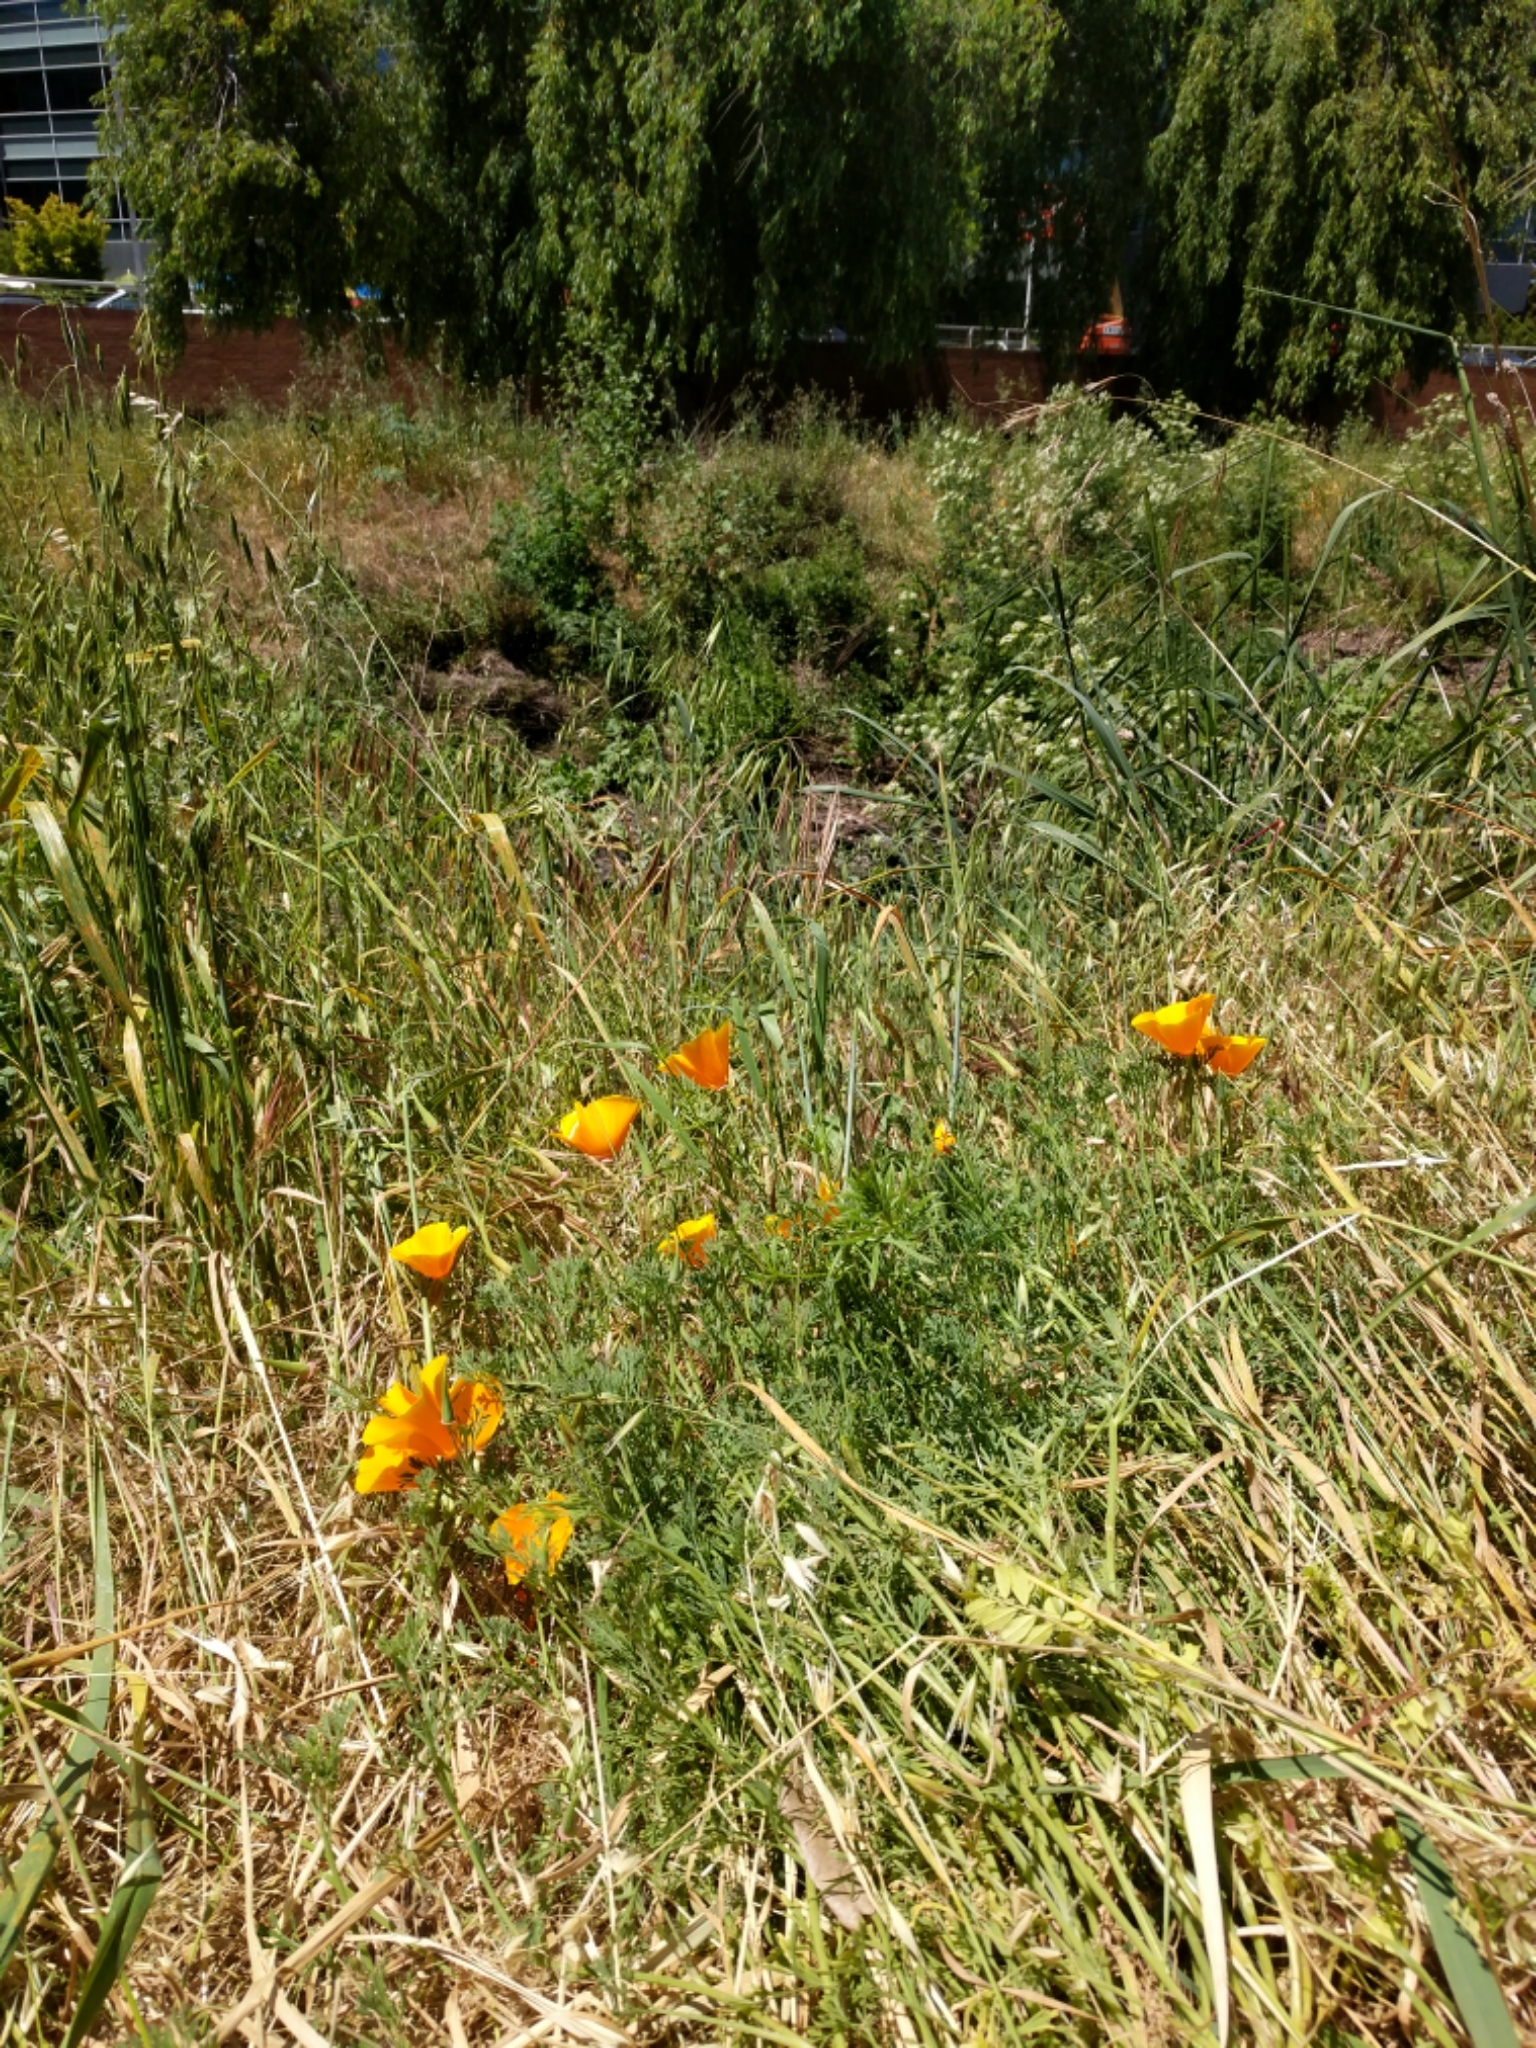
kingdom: Plantae
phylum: Tracheophyta
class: Magnoliopsida
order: Ranunculales
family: Papaveraceae
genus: Eschscholzia
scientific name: Eschscholzia californica
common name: California poppy
